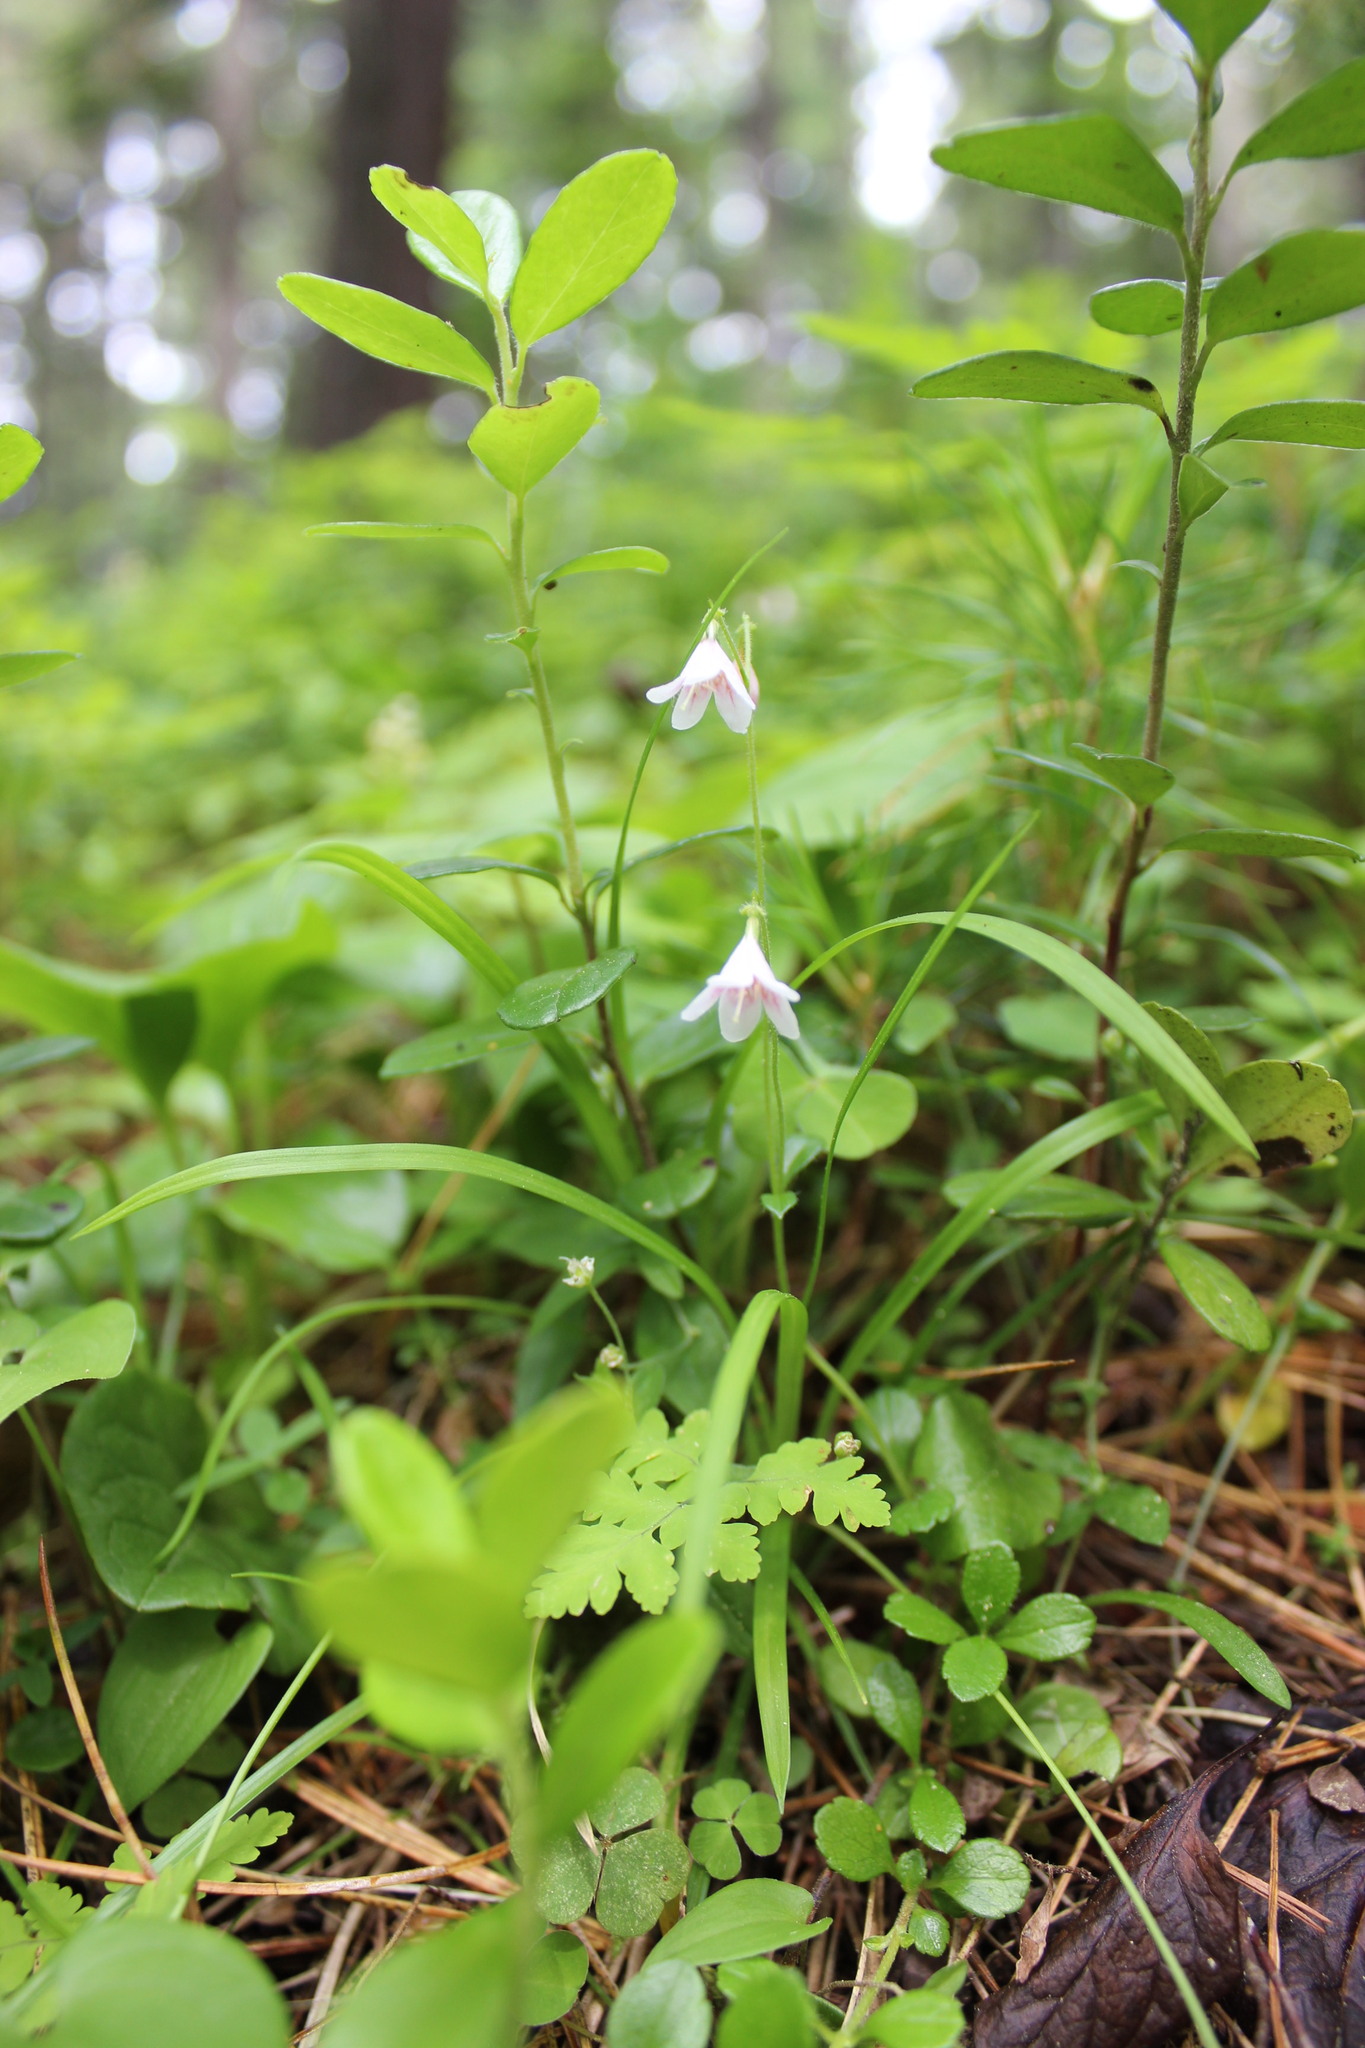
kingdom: Plantae
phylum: Tracheophyta
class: Magnoliopsida
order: Dipsacales
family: Caprifoliaceae
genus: Linnaea
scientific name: Linnaea borealis
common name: Twinflower
